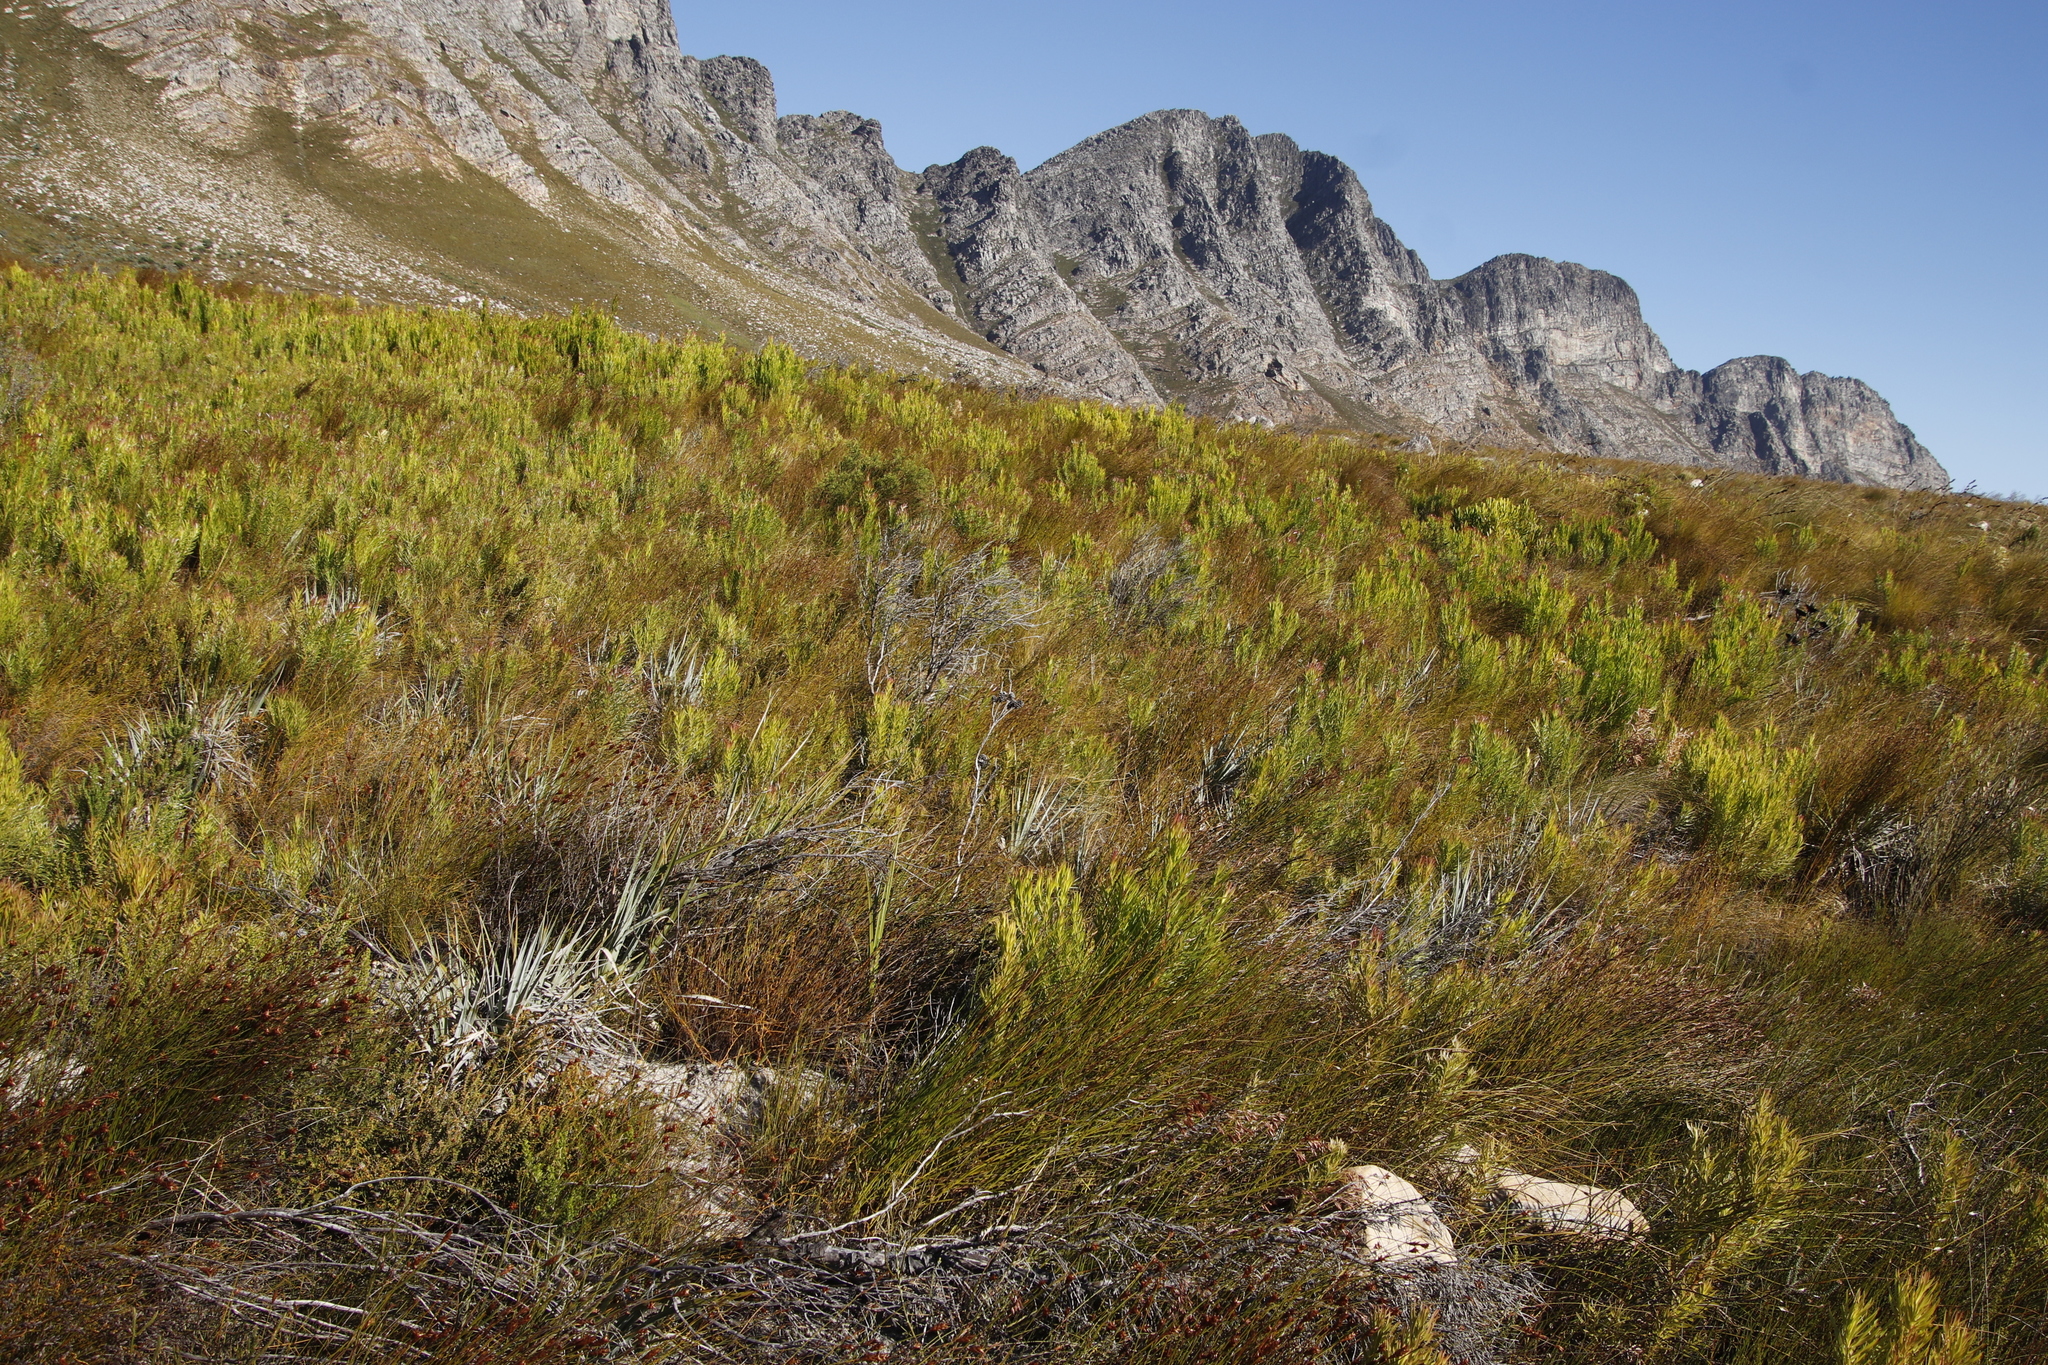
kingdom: Plantae
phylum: Tracheophyta
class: Magnoliopsida
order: Proteales
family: Proteaceae
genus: Leucadendron
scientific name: Leucadendron xanthoconus
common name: Sickle-leaf conebush
